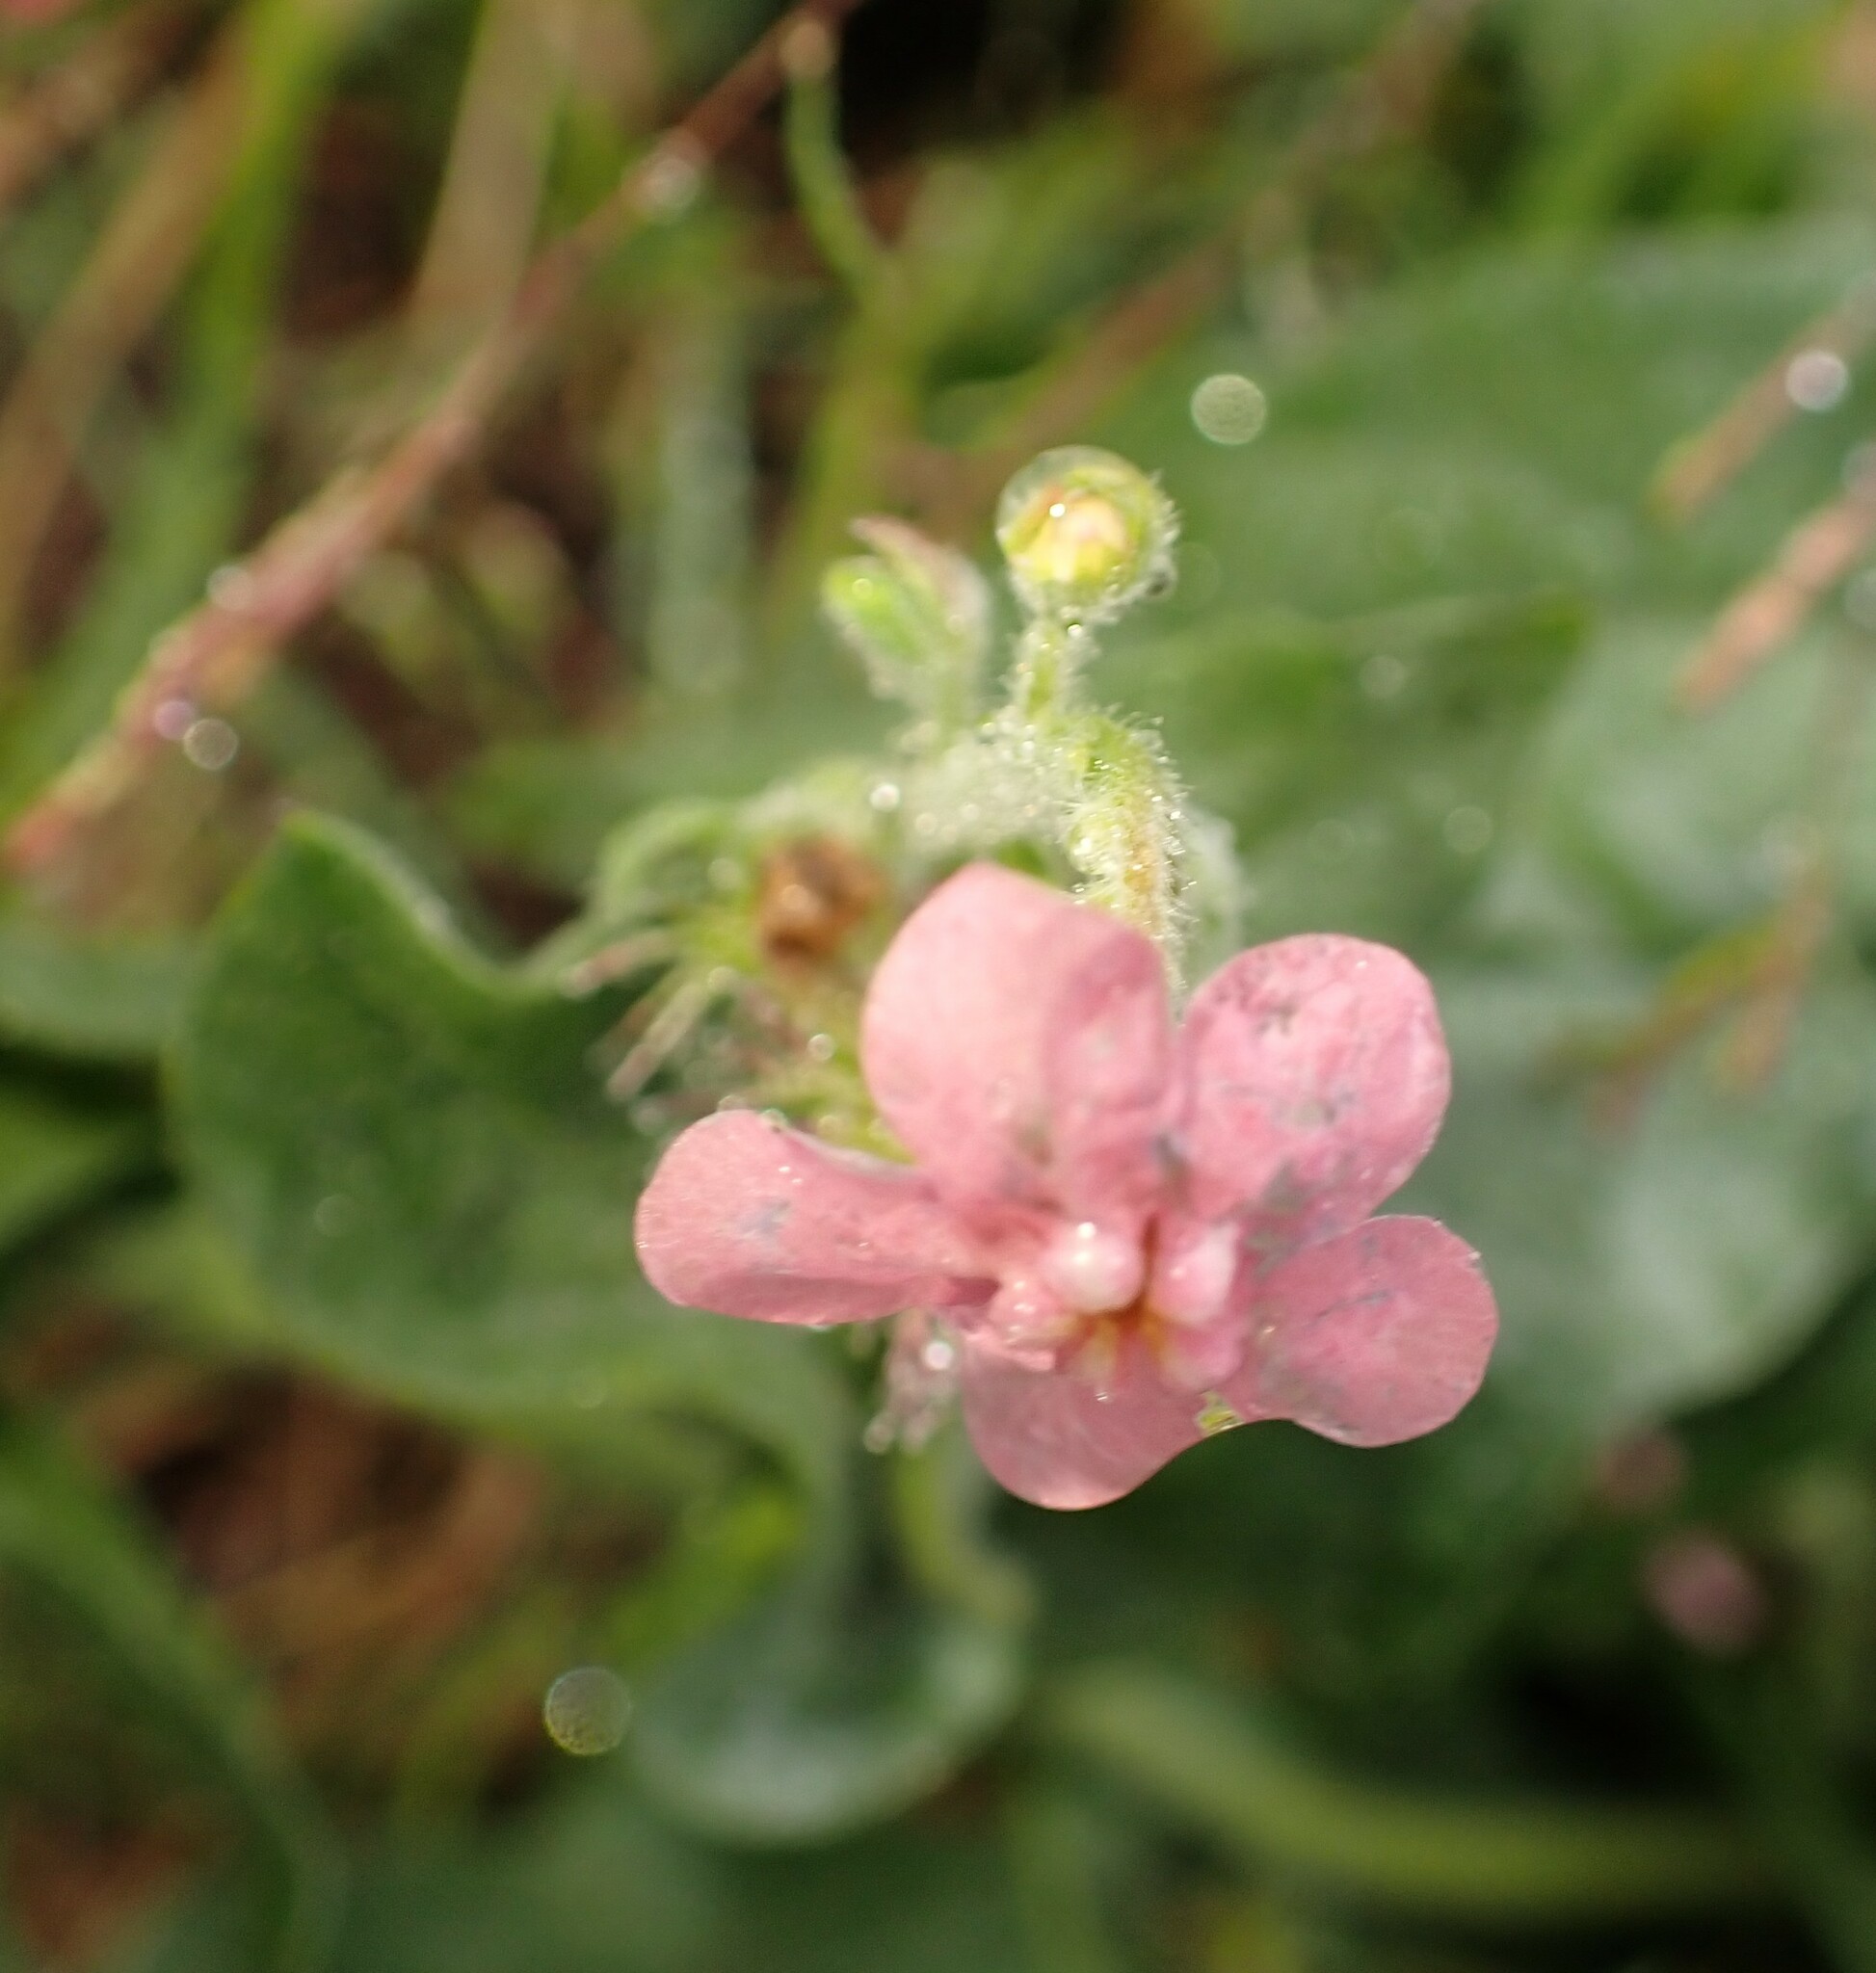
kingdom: Plantae
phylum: Tracheophyta
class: Magnoliopsida
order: Boraginales
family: Boraginaceae
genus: Hackelia
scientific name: Hackelia mundula
